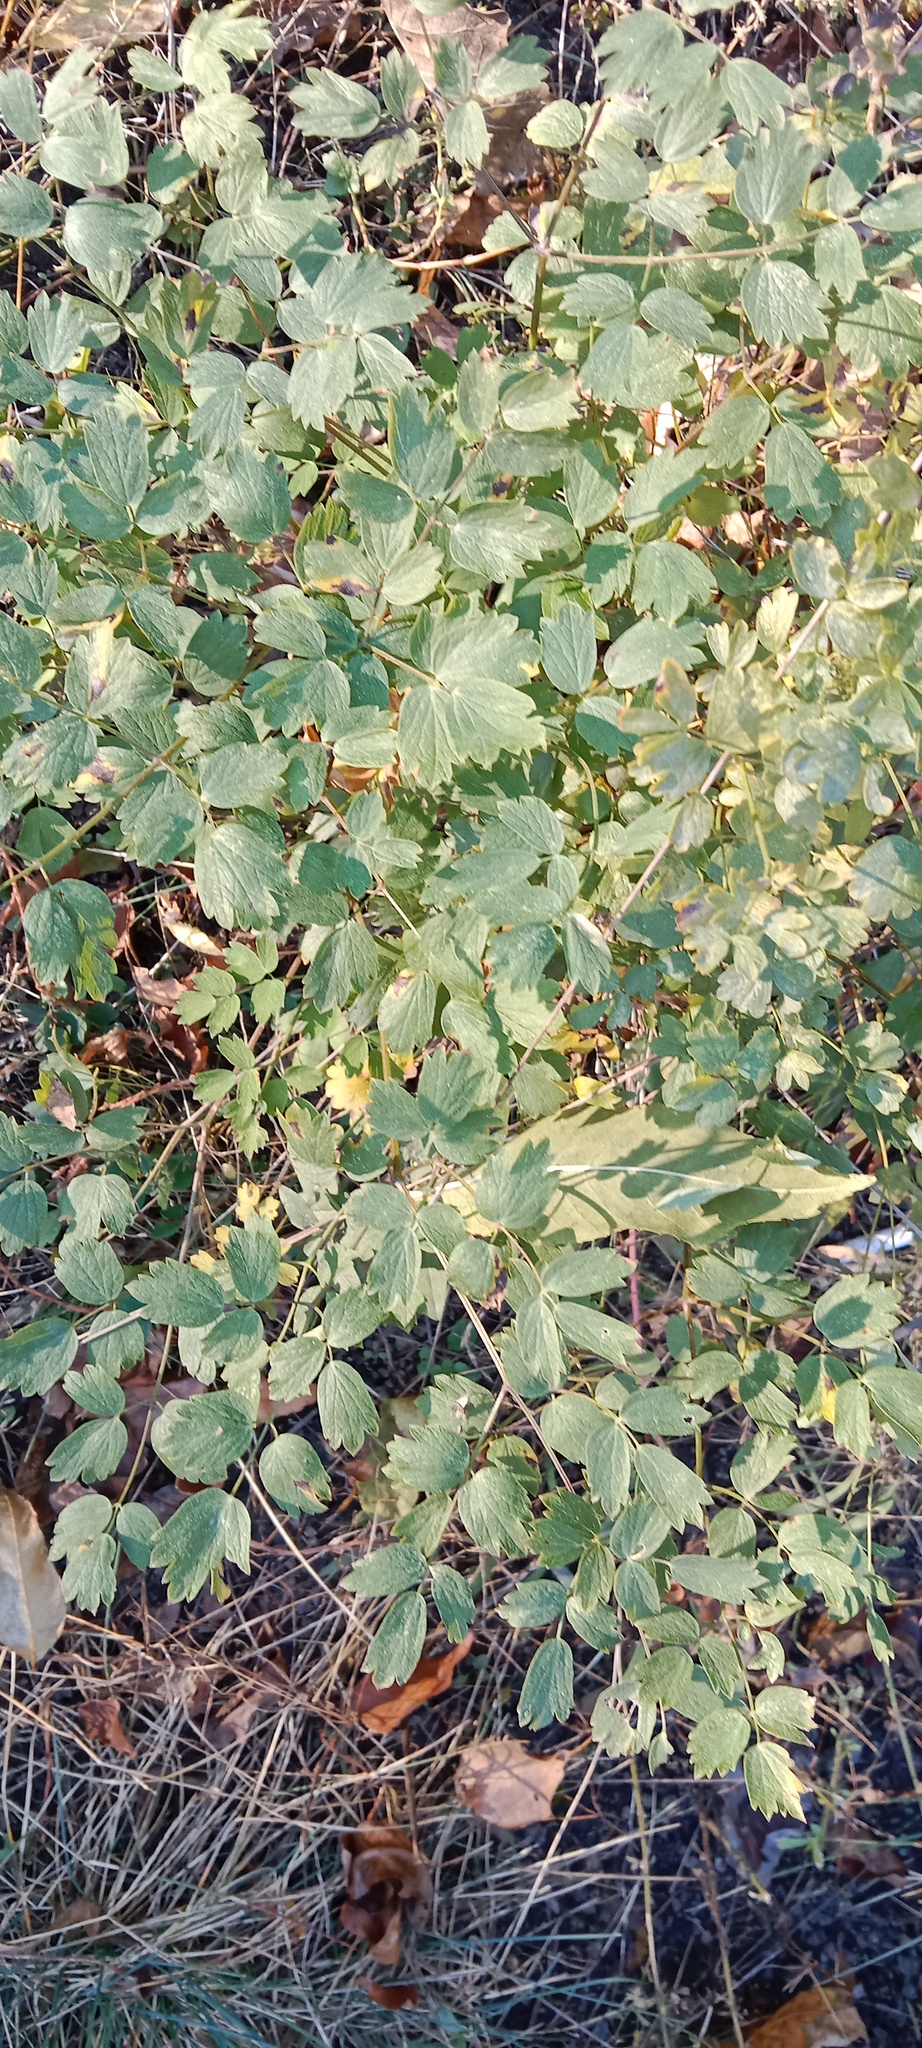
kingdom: Plantae
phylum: Tracheophyta
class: Magnoliopsida
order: Ranunculales
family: Ranunculaceae
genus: Thalictrum
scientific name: Thalictrum minus
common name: Lesser meadow-rue
